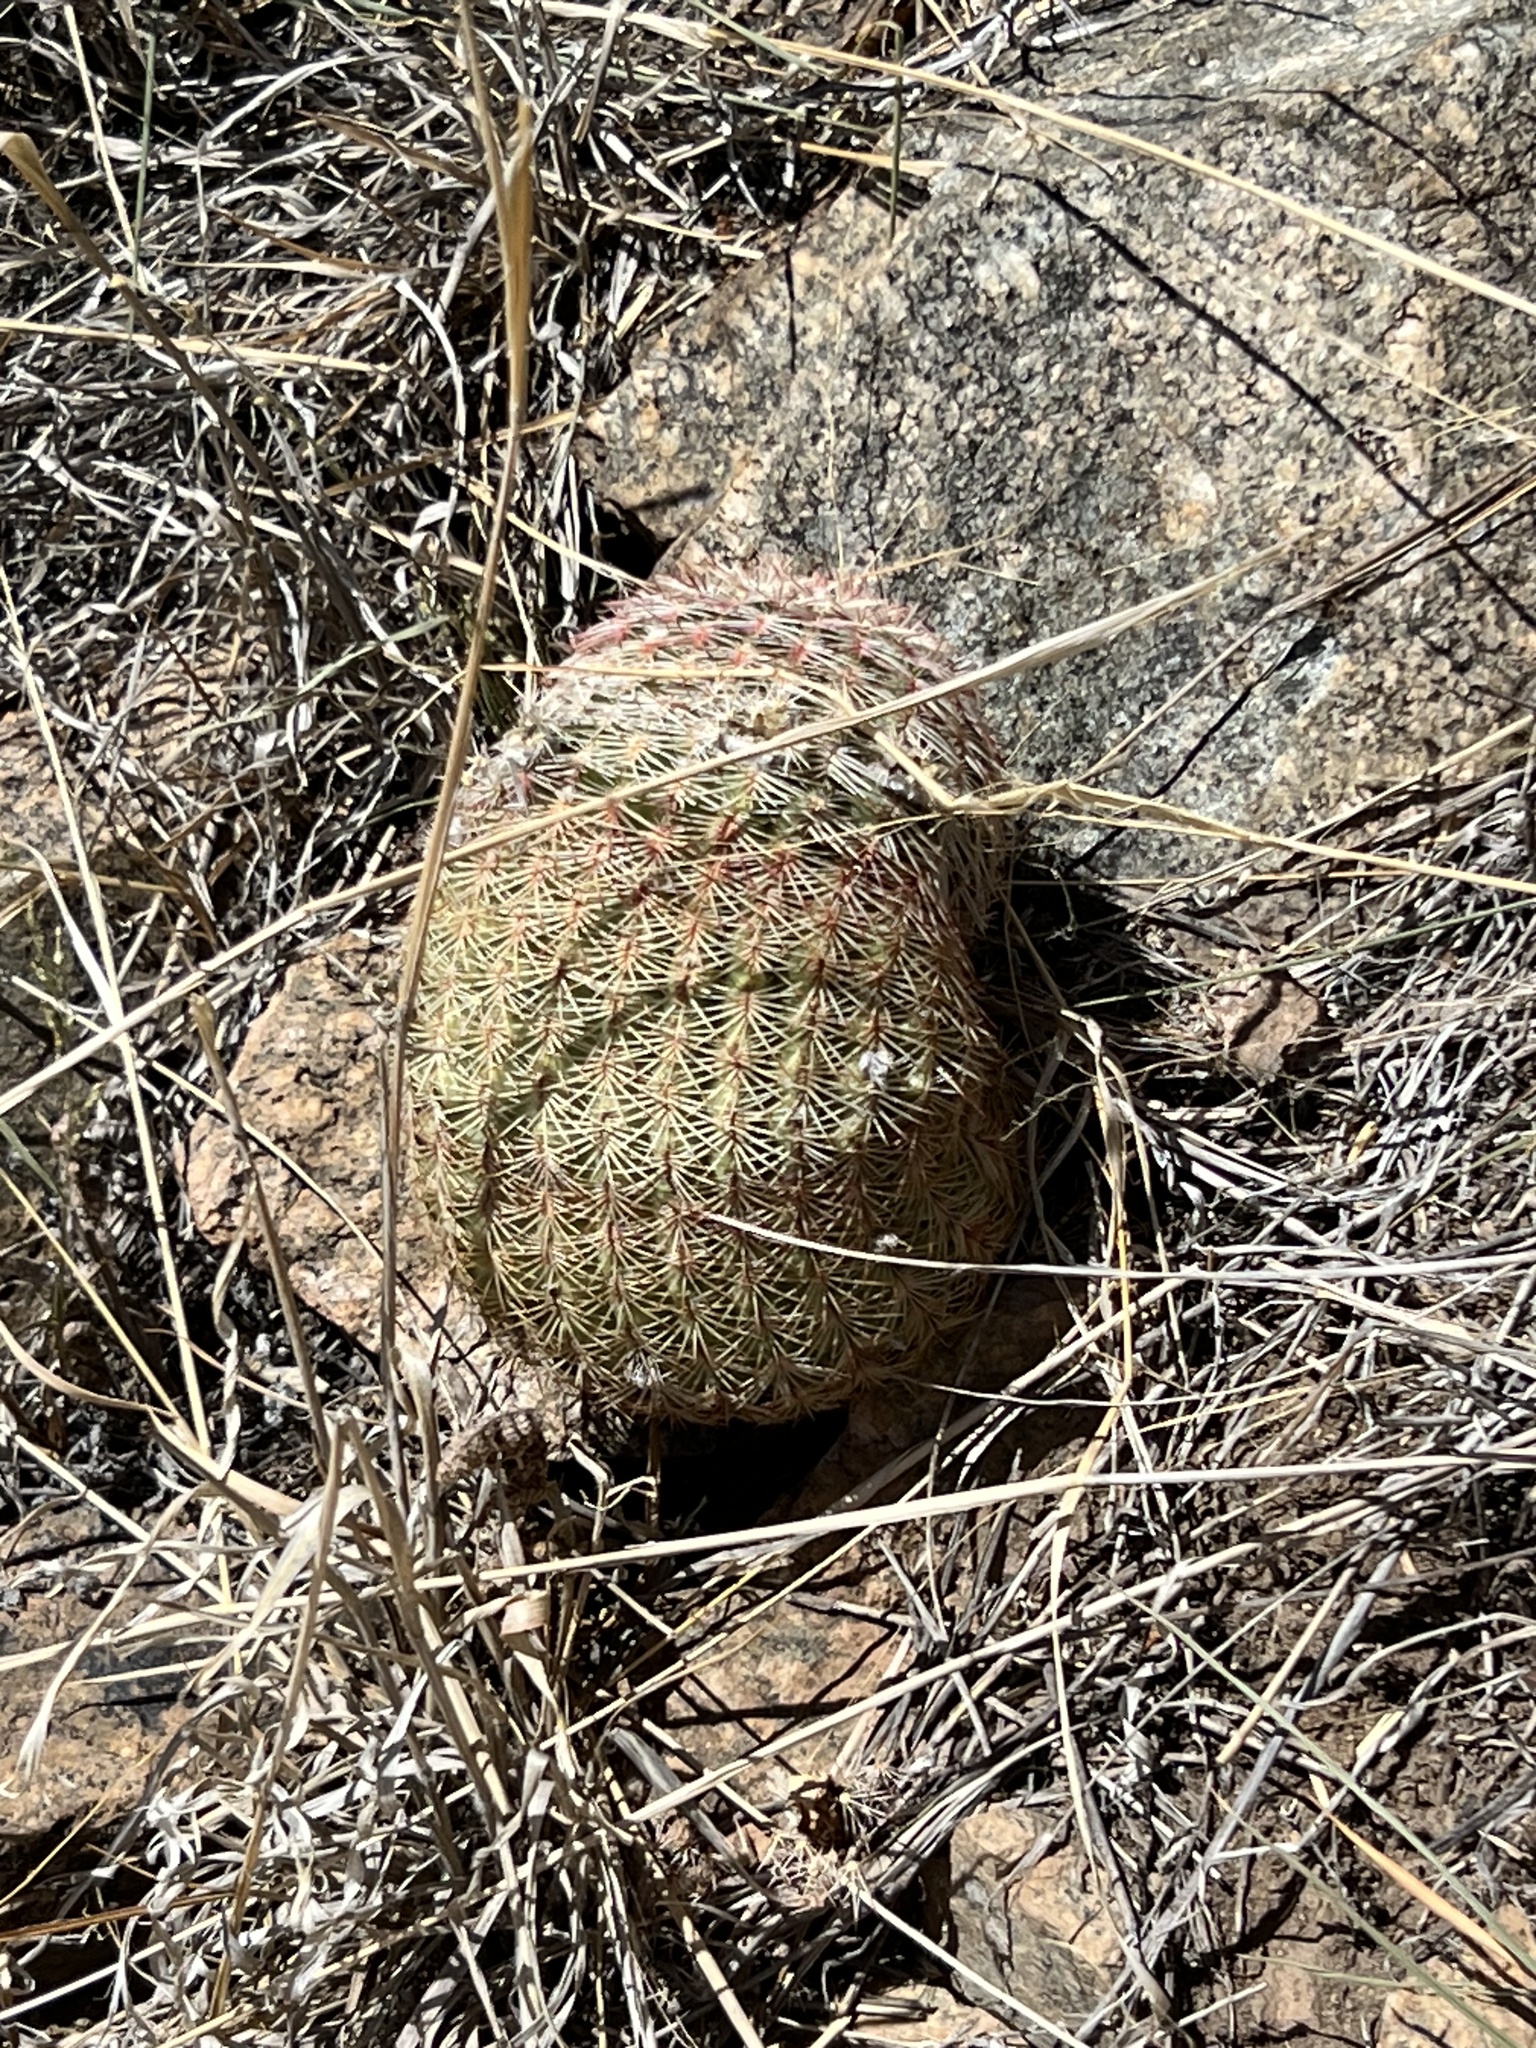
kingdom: Plantae
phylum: Tracheophyta
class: Magnoliopsida
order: Caryophyllales
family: Cactaceae
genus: Echinocereus
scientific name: Echinocereus rigidissimus
